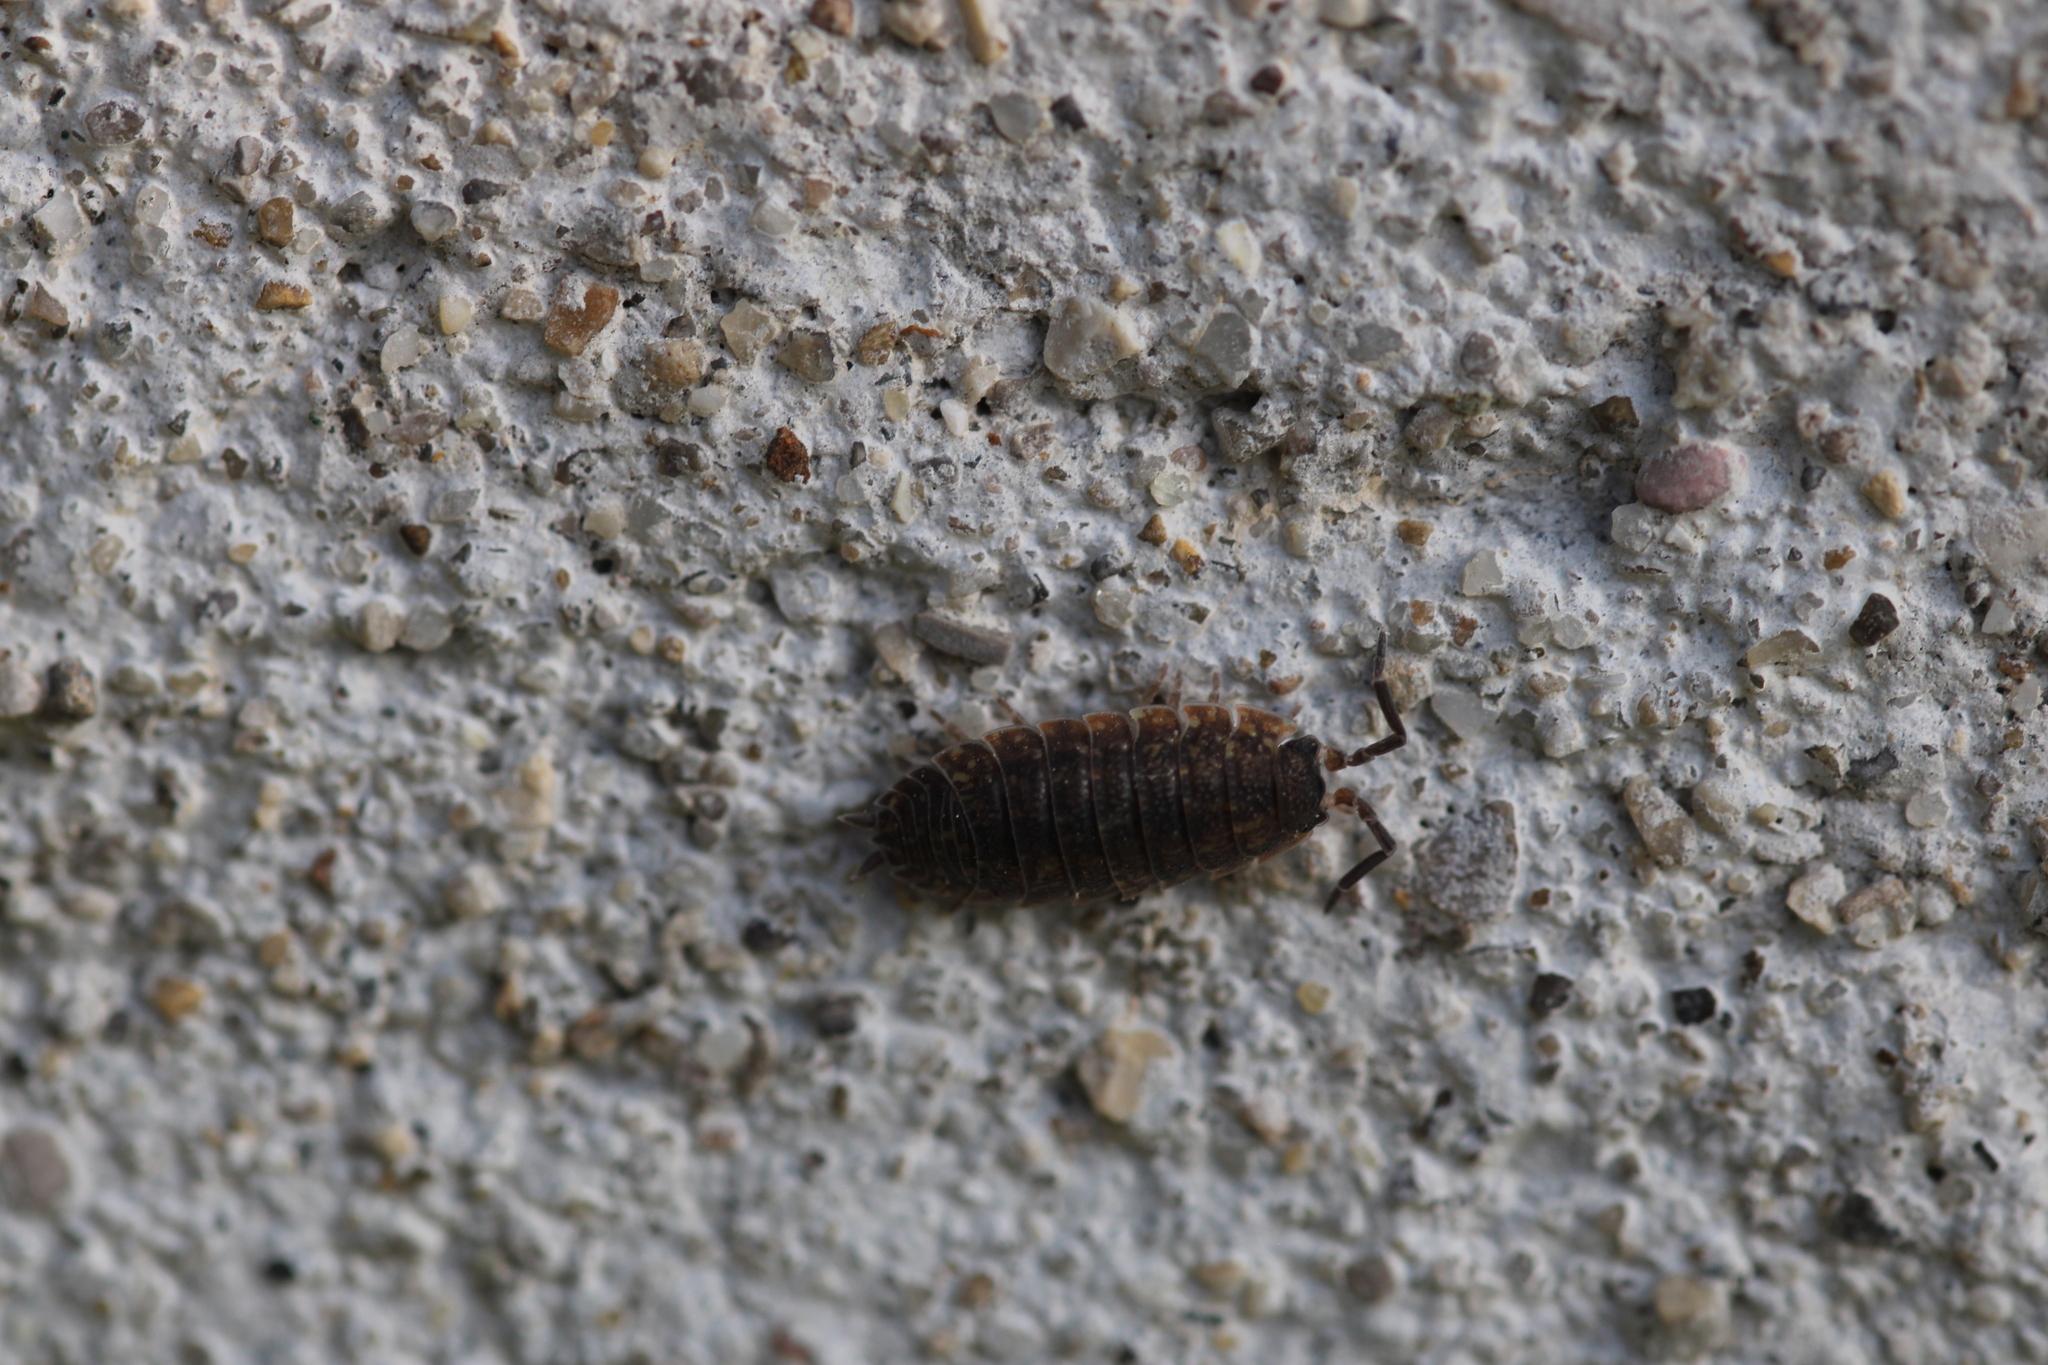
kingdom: Animalia
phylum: Arthropoda
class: Malacostraca
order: Isopoda
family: Porcellionidae
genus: Porcellio
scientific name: Porcellio scaber
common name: Common rough woodlouse
